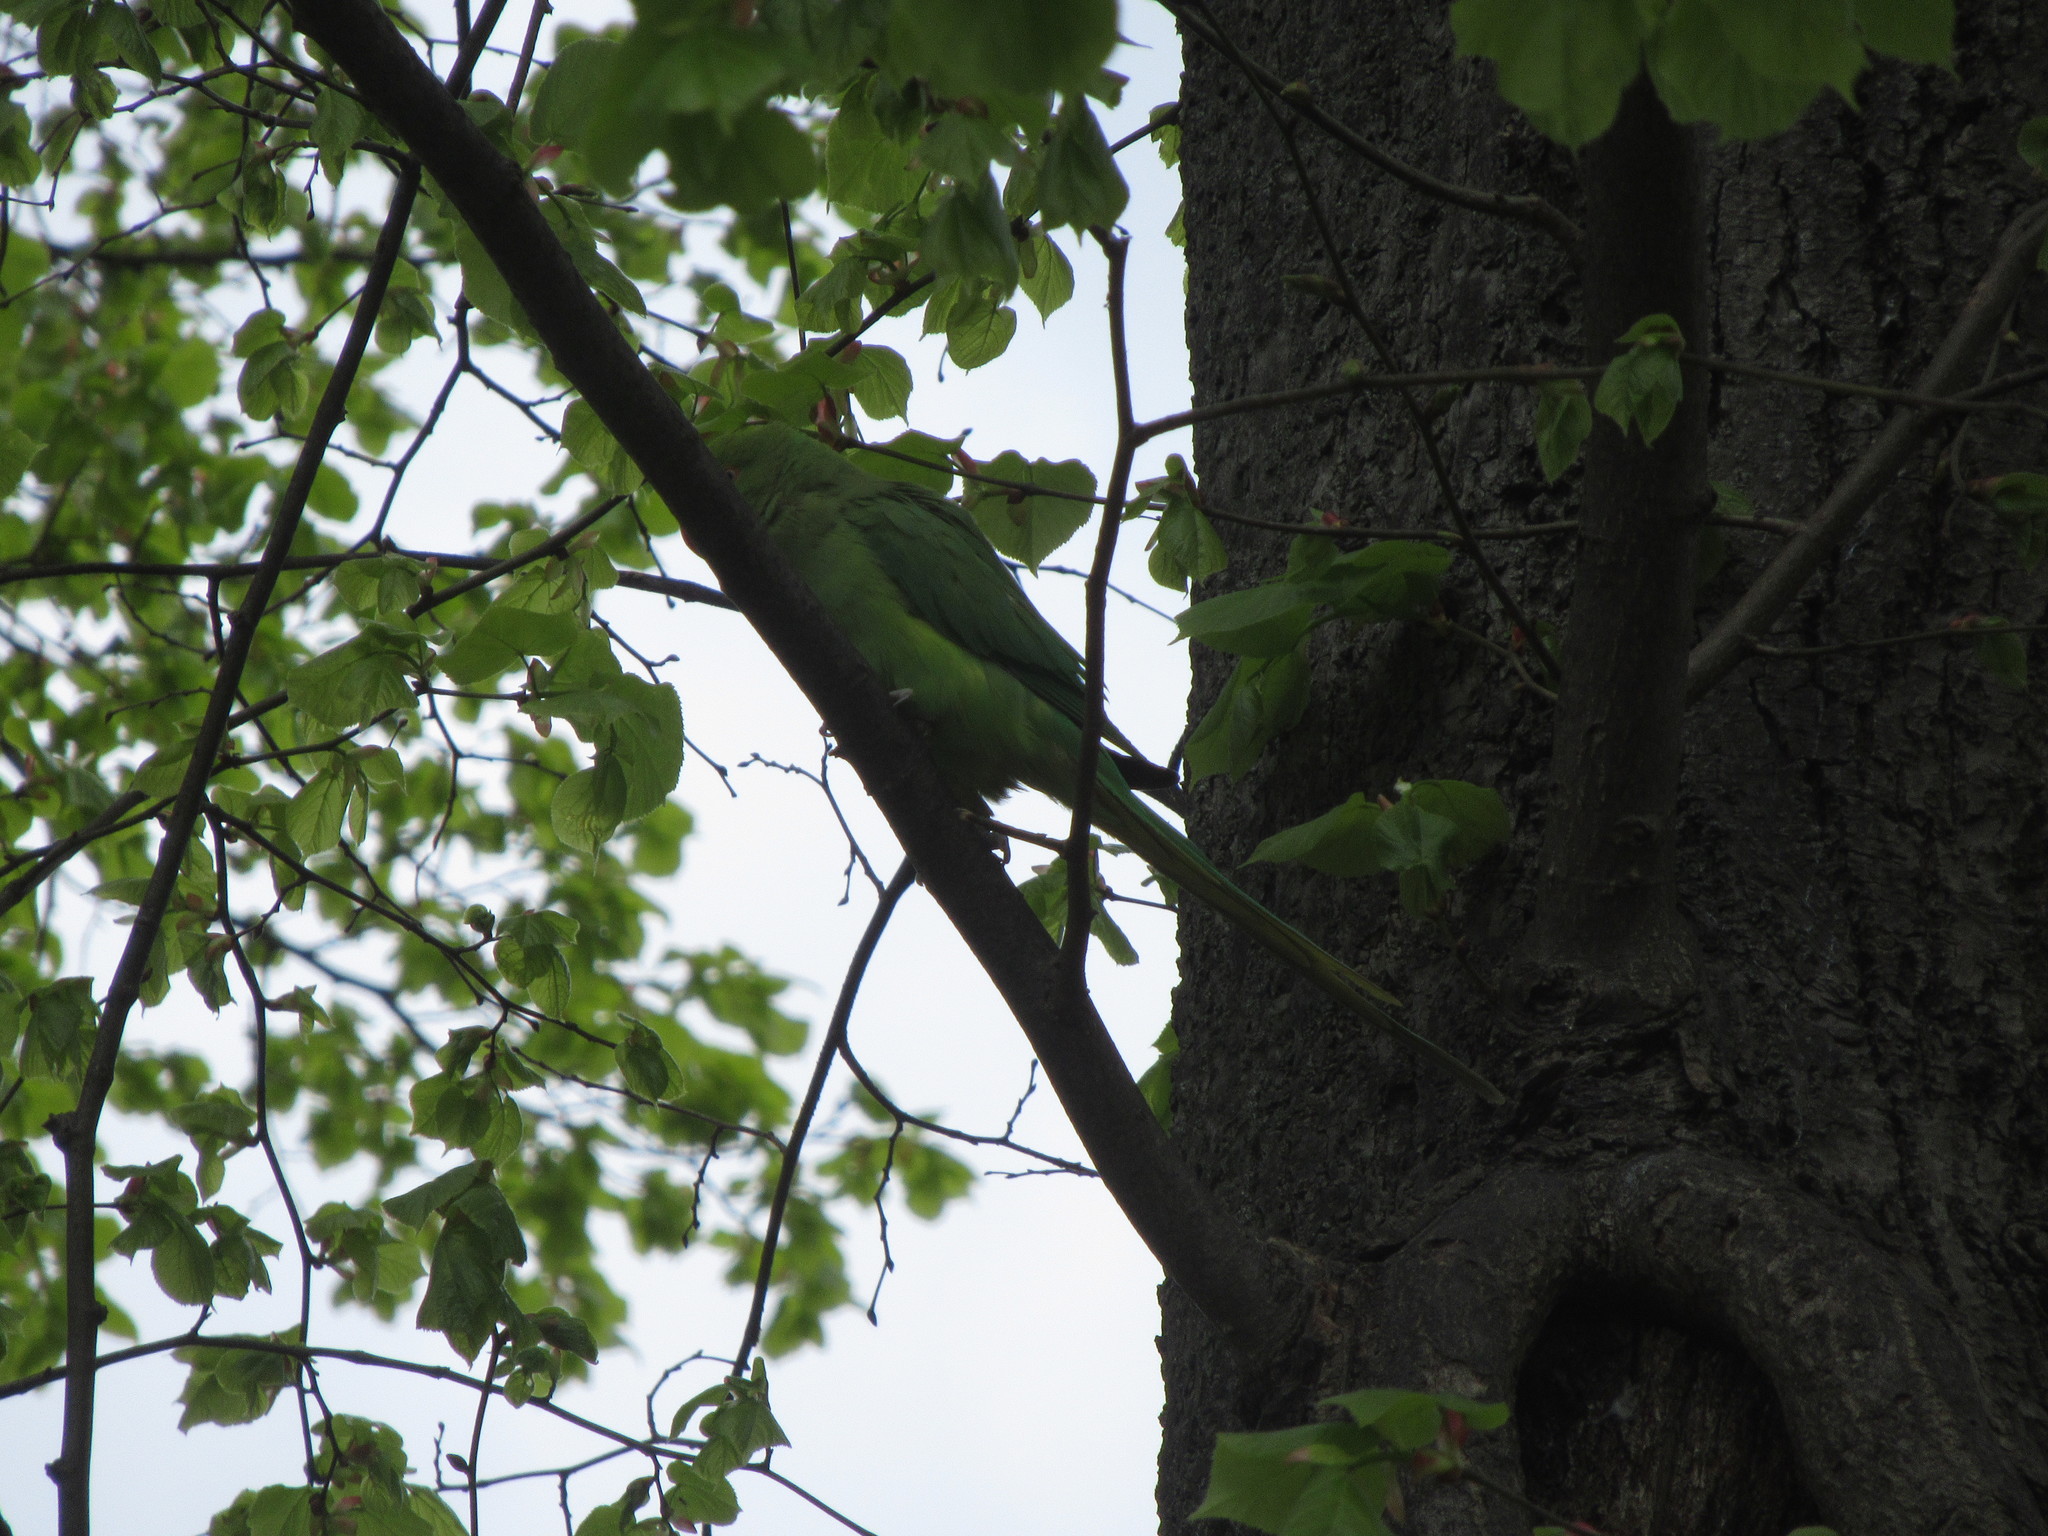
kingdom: Animalia
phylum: Chordata
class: Aves
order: Psittaciformes
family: Psittacidae
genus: Psittacula
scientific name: Psittacula krameri
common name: Rose-ringed parakeet
